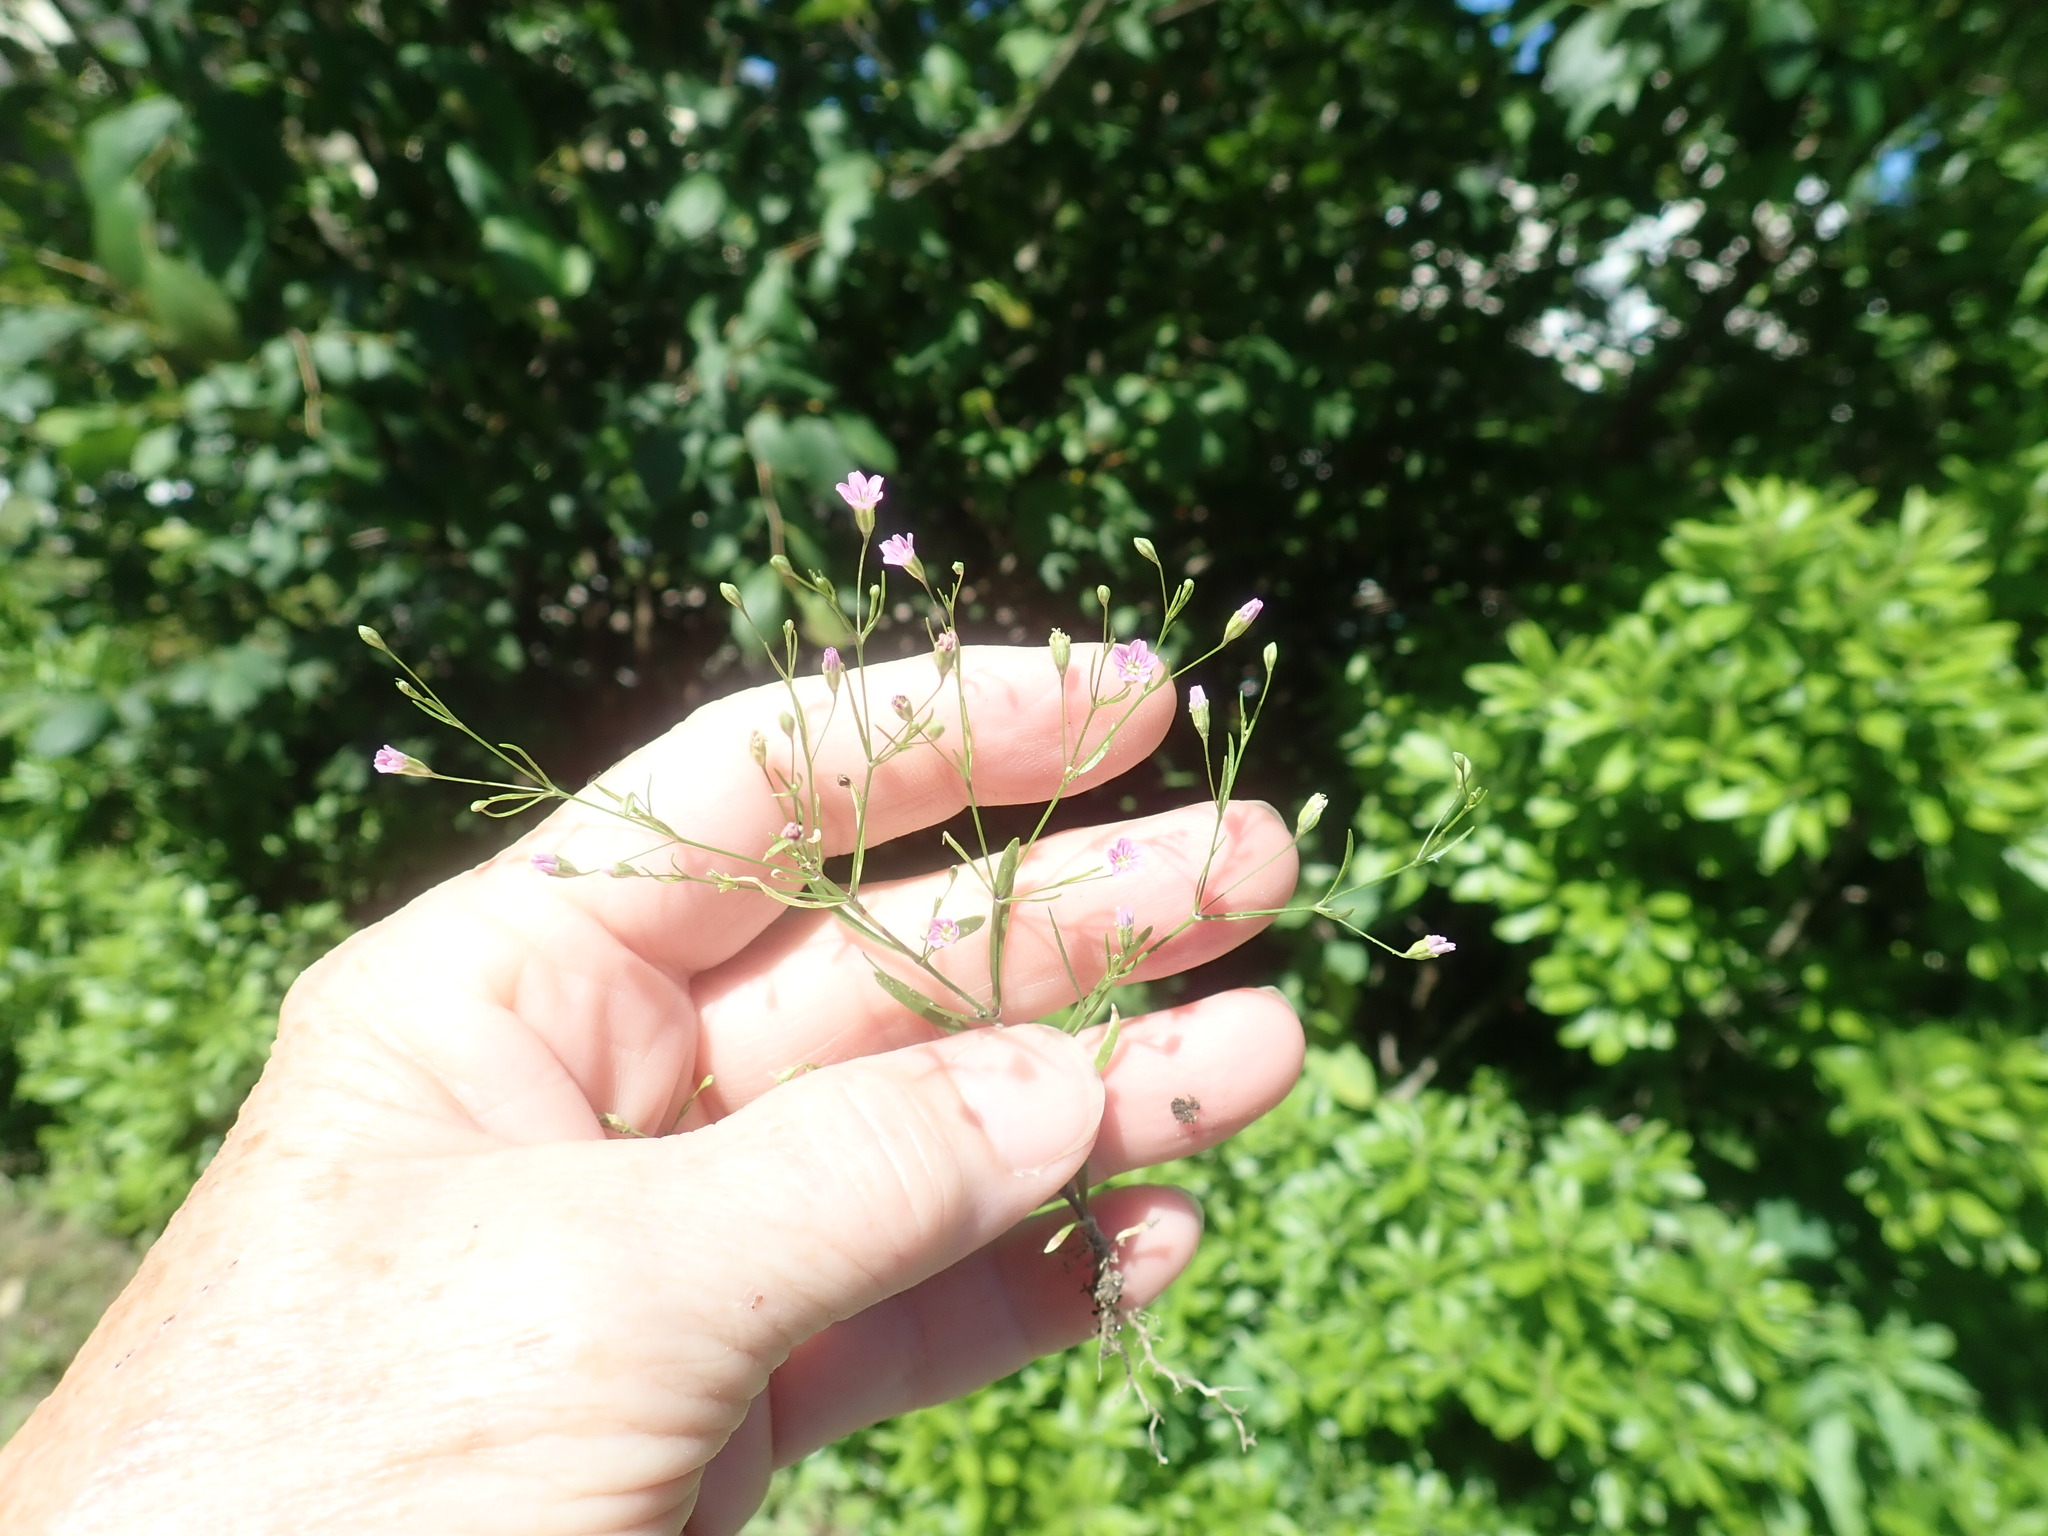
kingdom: Plantae
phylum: Tracheophyta
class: Magnoliopsida
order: Caryophyllales
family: Caryophyllaceae
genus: Psammophiliella
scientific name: Psammophiliella muralis
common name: Cushion baby's-breath
